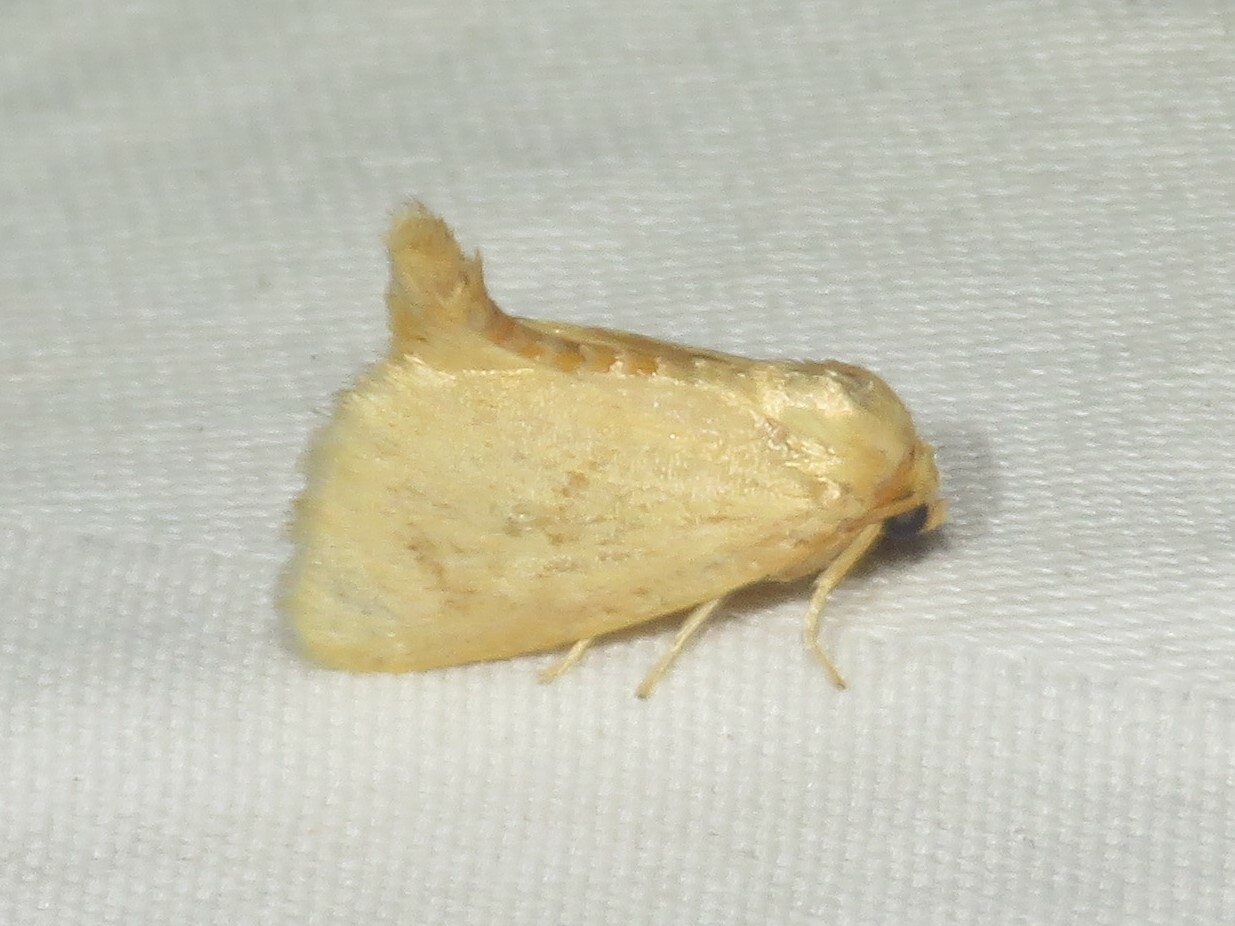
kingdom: Animalia
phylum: Arthropoda
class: Insecta
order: Lepidoptera
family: Limacodidae
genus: Tortricidia
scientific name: Tortricidia pallida
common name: Red-crossed button slug moth
